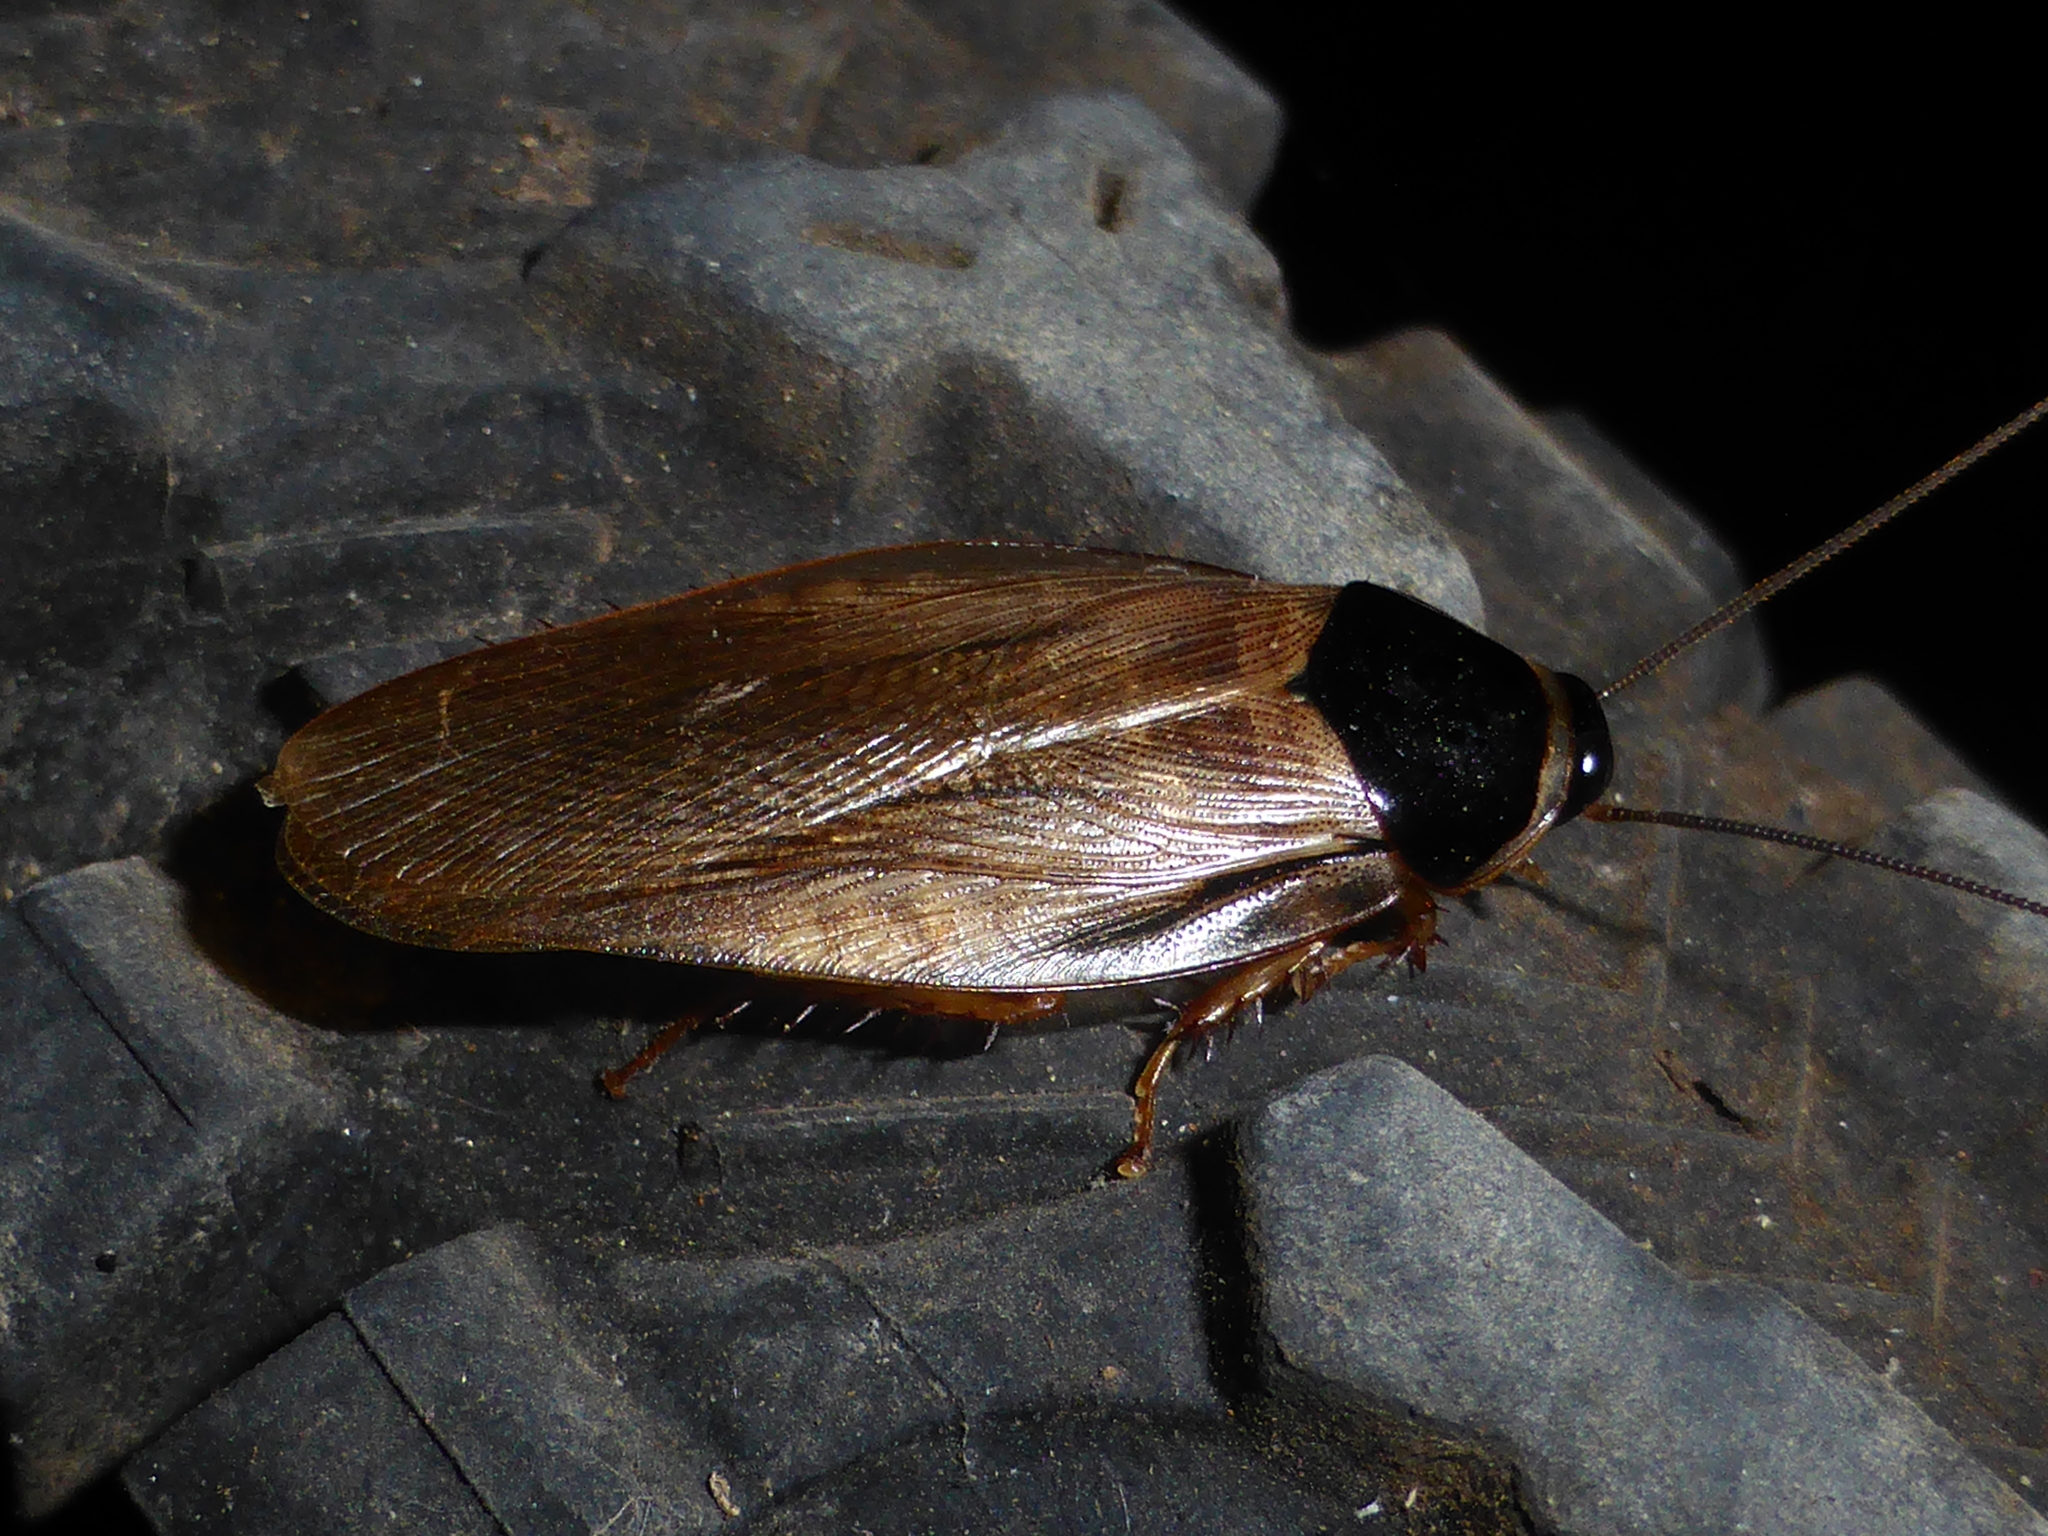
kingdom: Animalia
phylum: Arthropoda
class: Insecta
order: Blattodea
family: Blaberidae
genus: Pycnoscelus
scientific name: Pycnoscelus surinamensis
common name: Surinam cockroach
